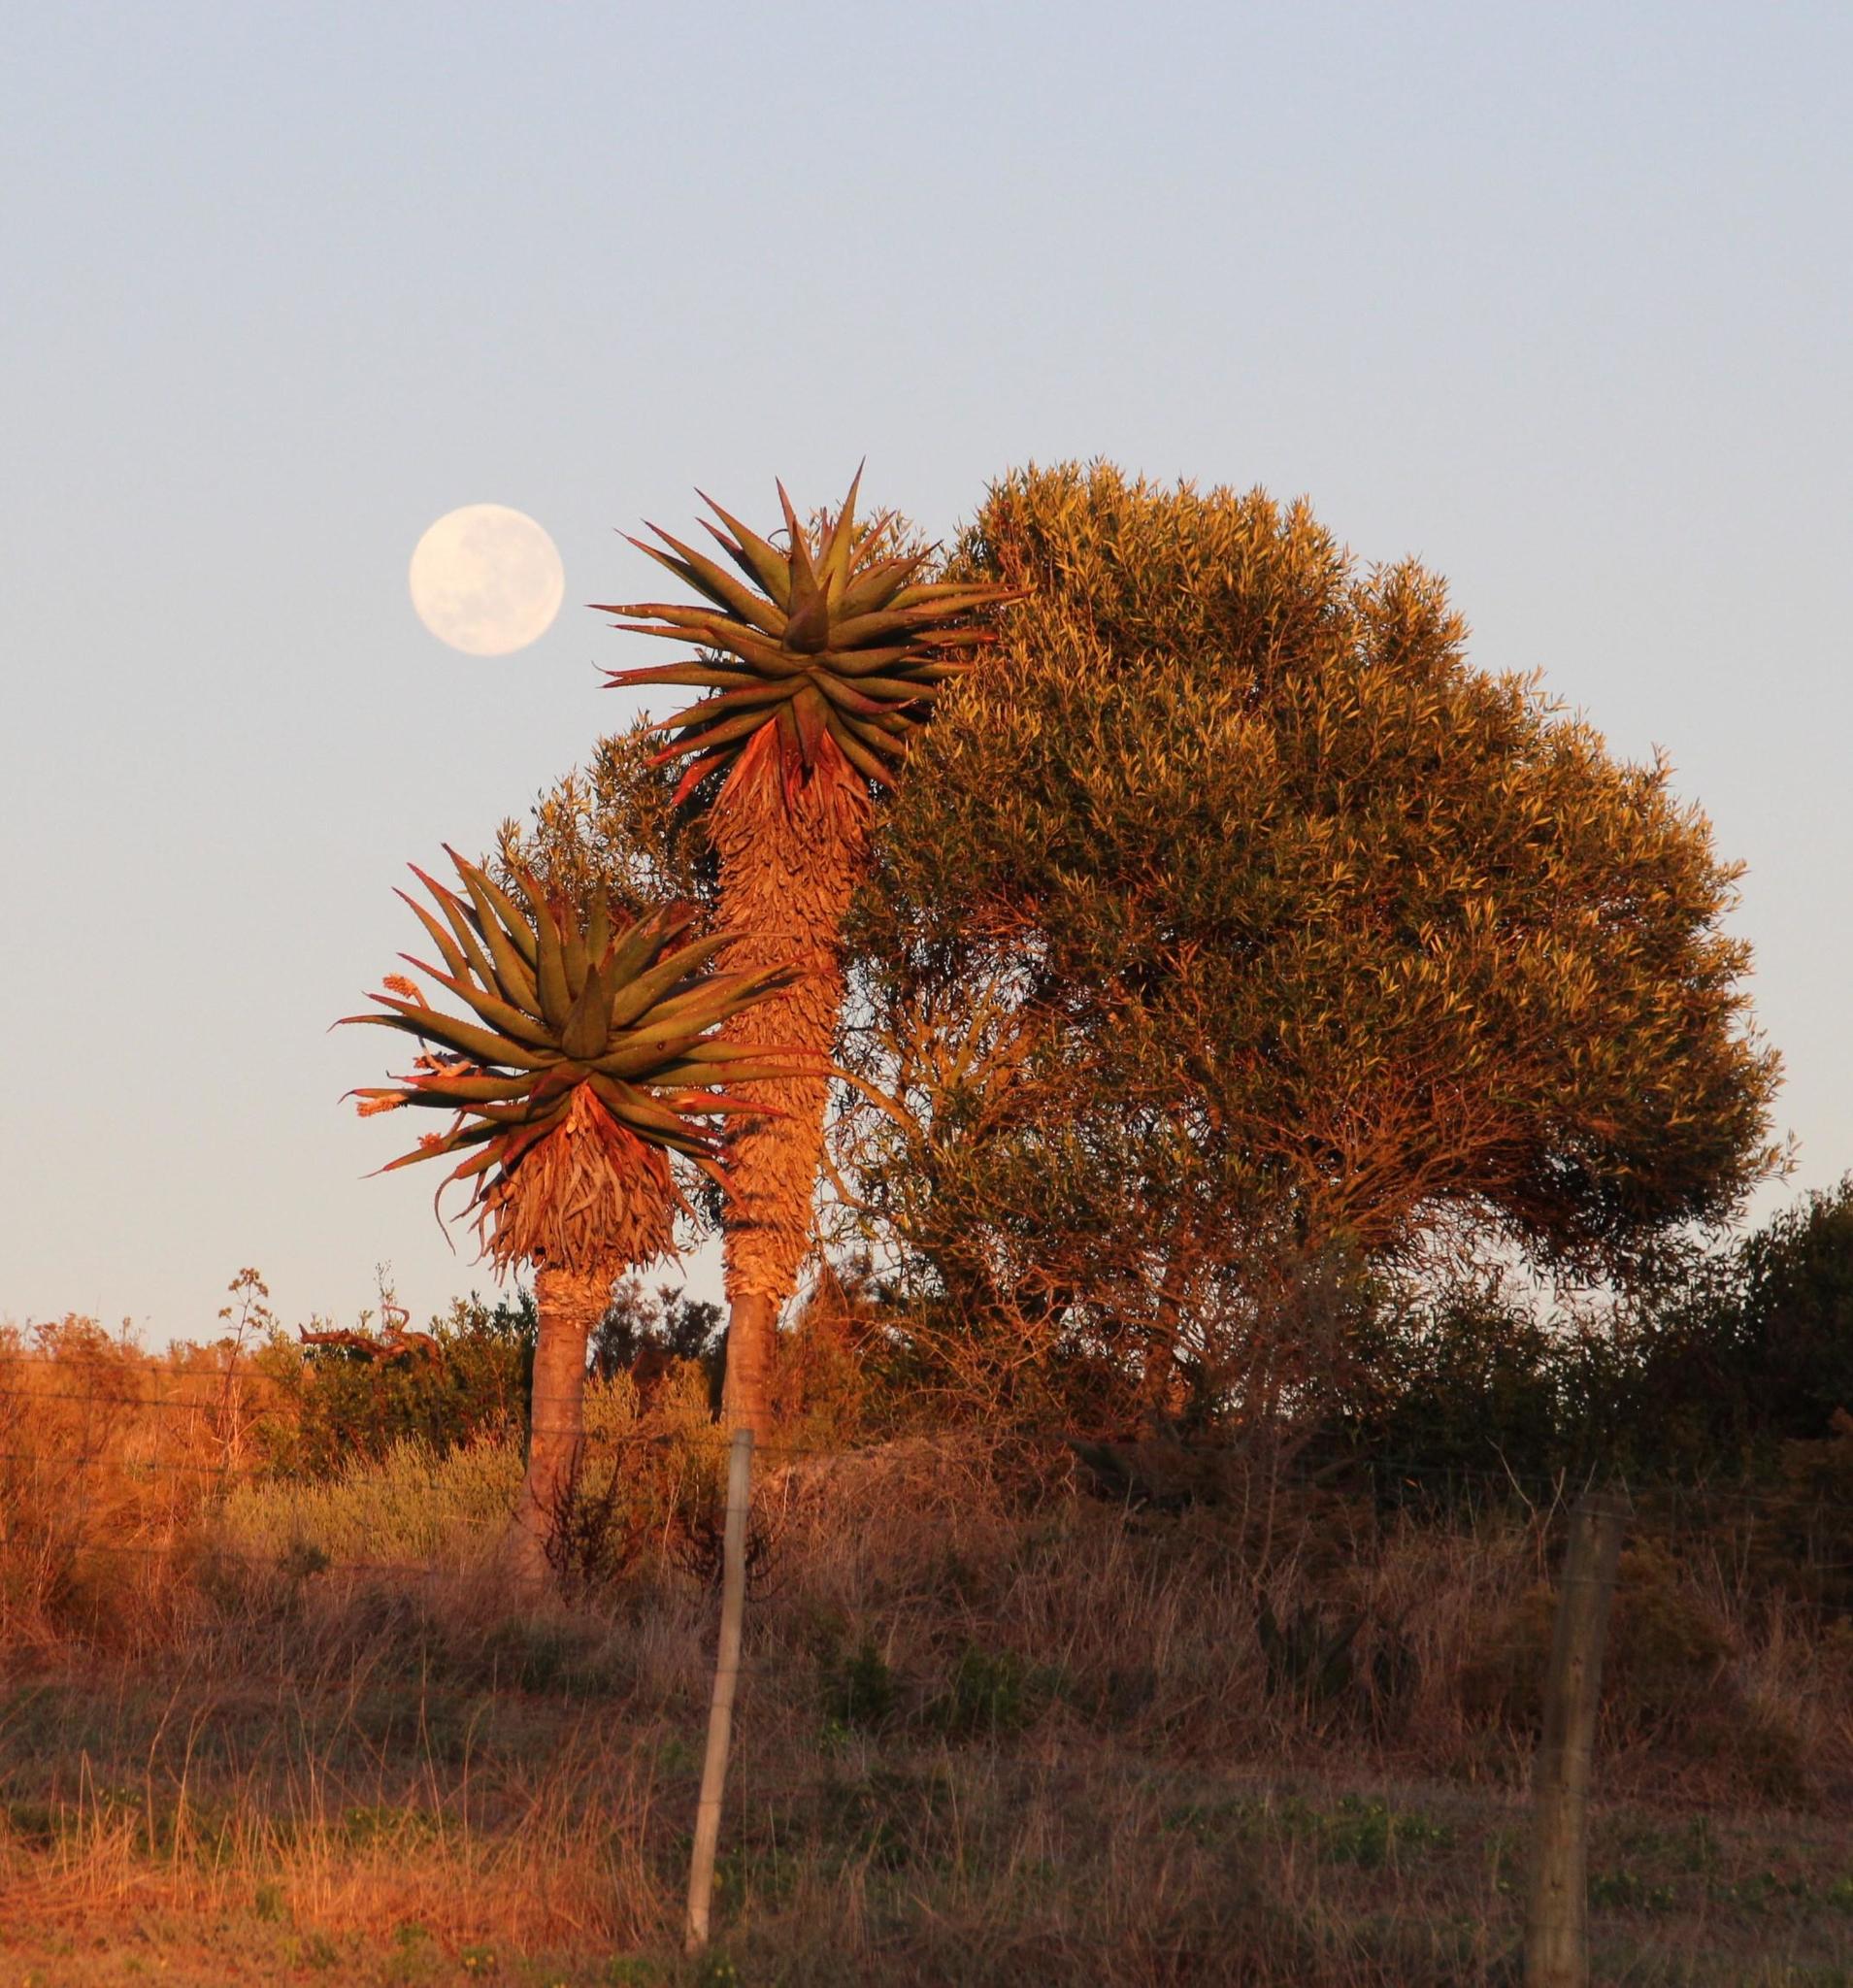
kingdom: Plantae
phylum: Tracheophyta
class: Liliopsida
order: Asparagales
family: Asphodelaceae
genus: Aloe
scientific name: Aloe ferox
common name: Bitter aloe
